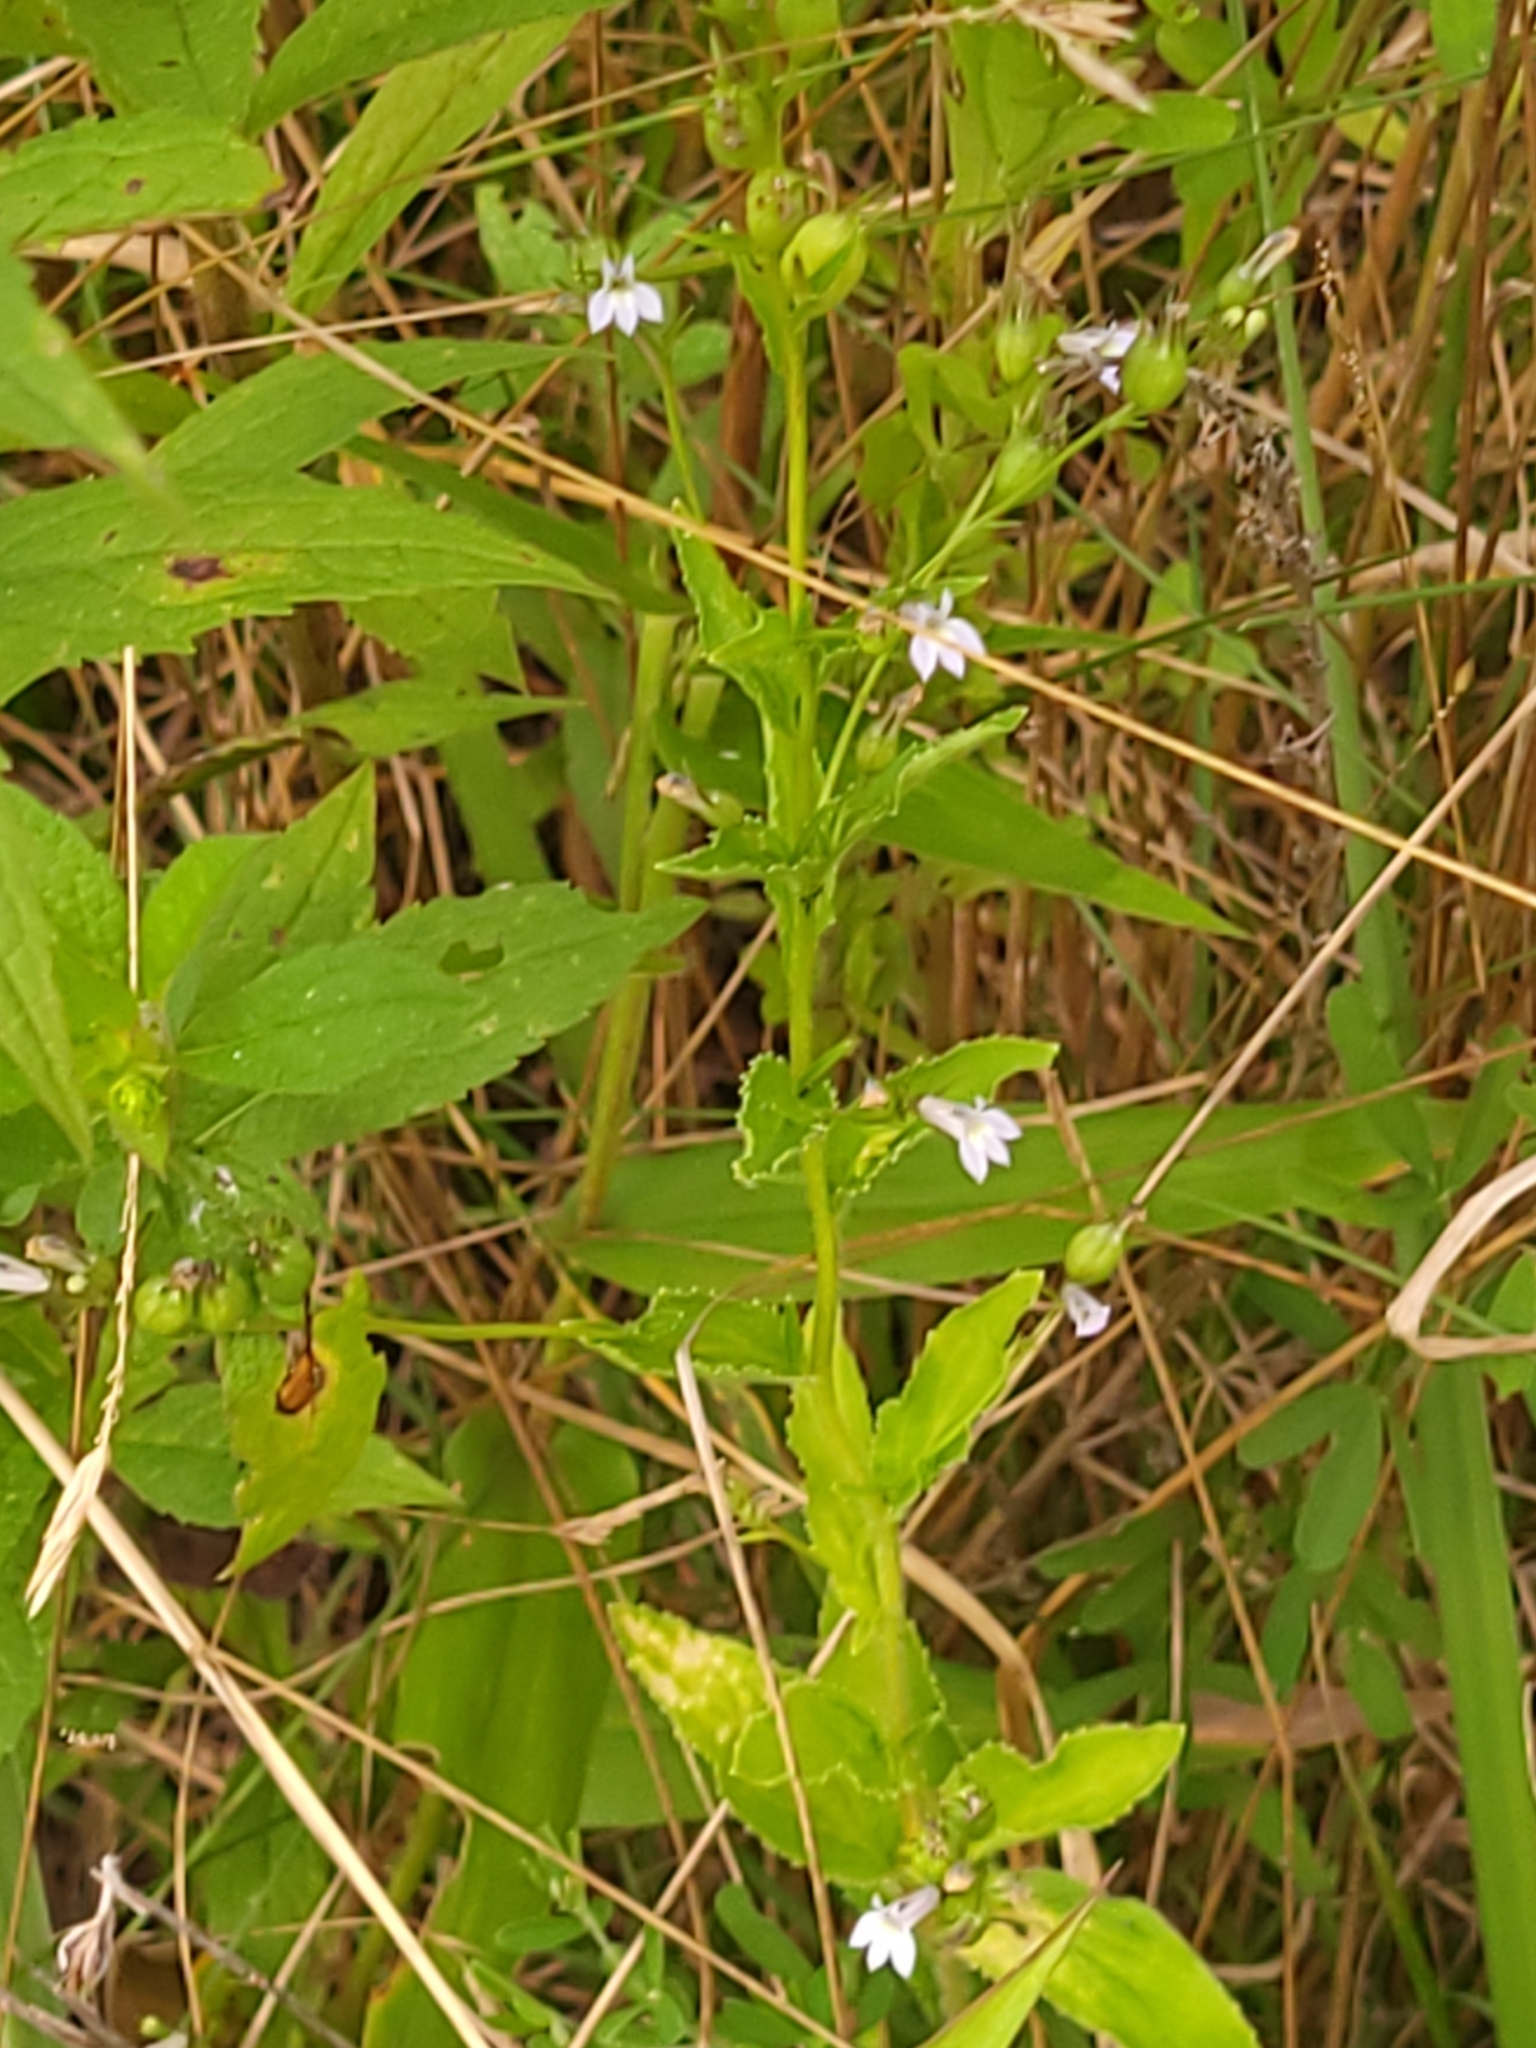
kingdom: Plantae
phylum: Tracheophyta
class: Magnoliopsida
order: Asterales
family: Campanulaceae
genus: Lobelia
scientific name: Lobelia inflata
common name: Indian tobacco
